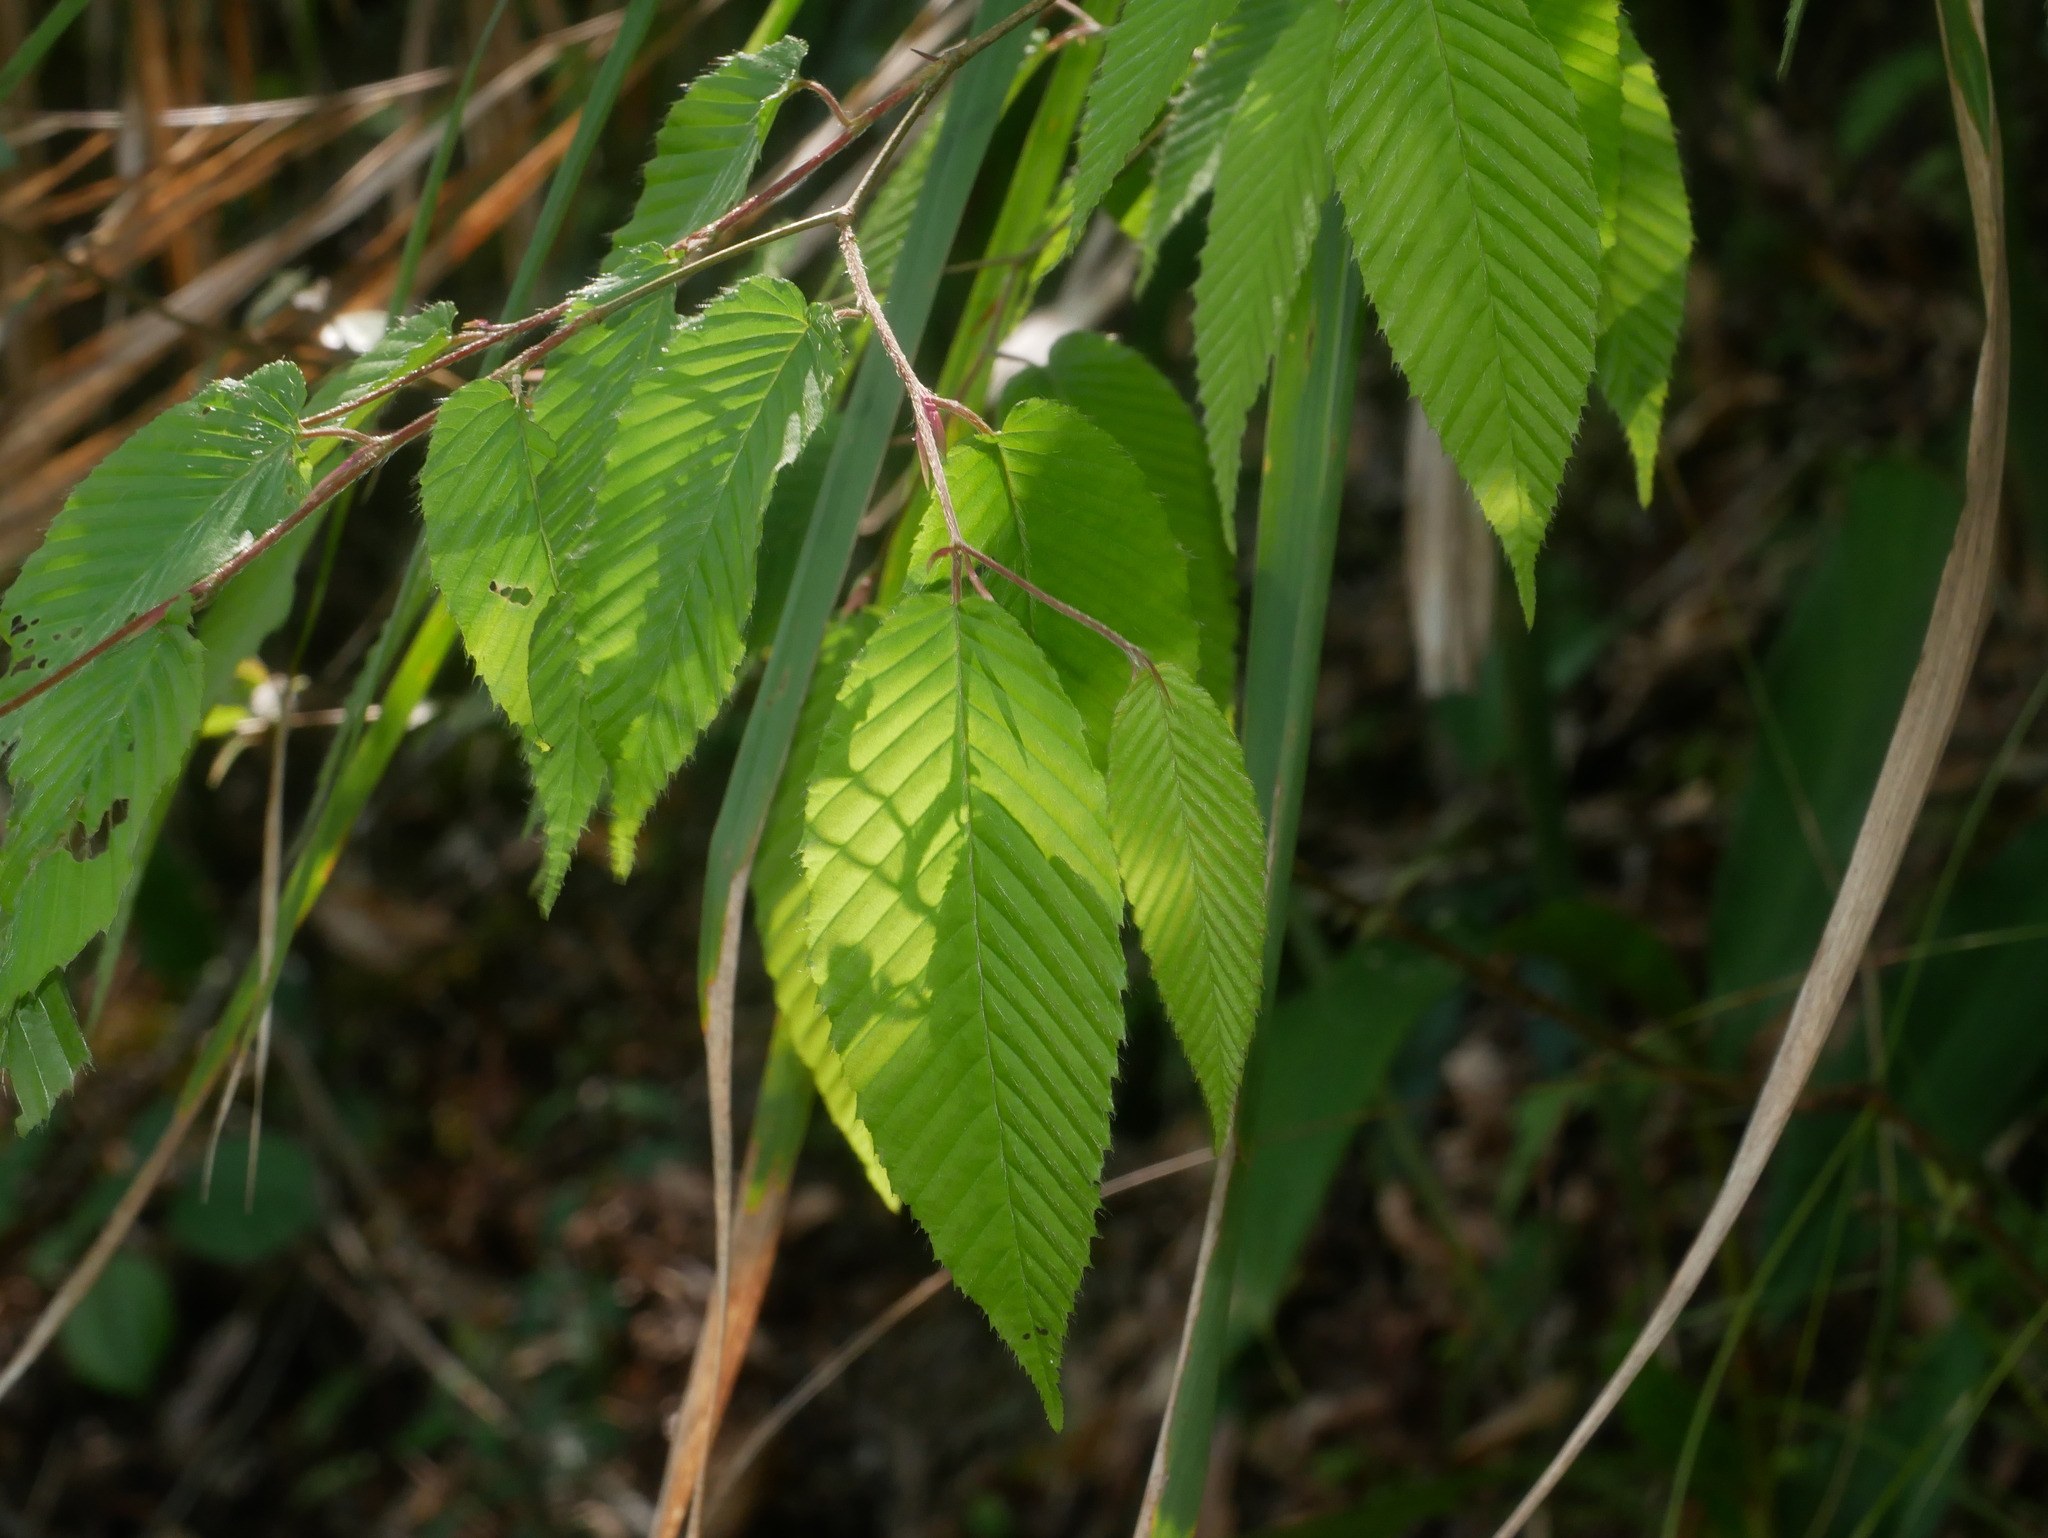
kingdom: Plantae
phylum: Tracheophyta
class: Magnoliopsida
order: Fagales
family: Betulaceae
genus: Carpinus
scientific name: Carpinus rankanensis
